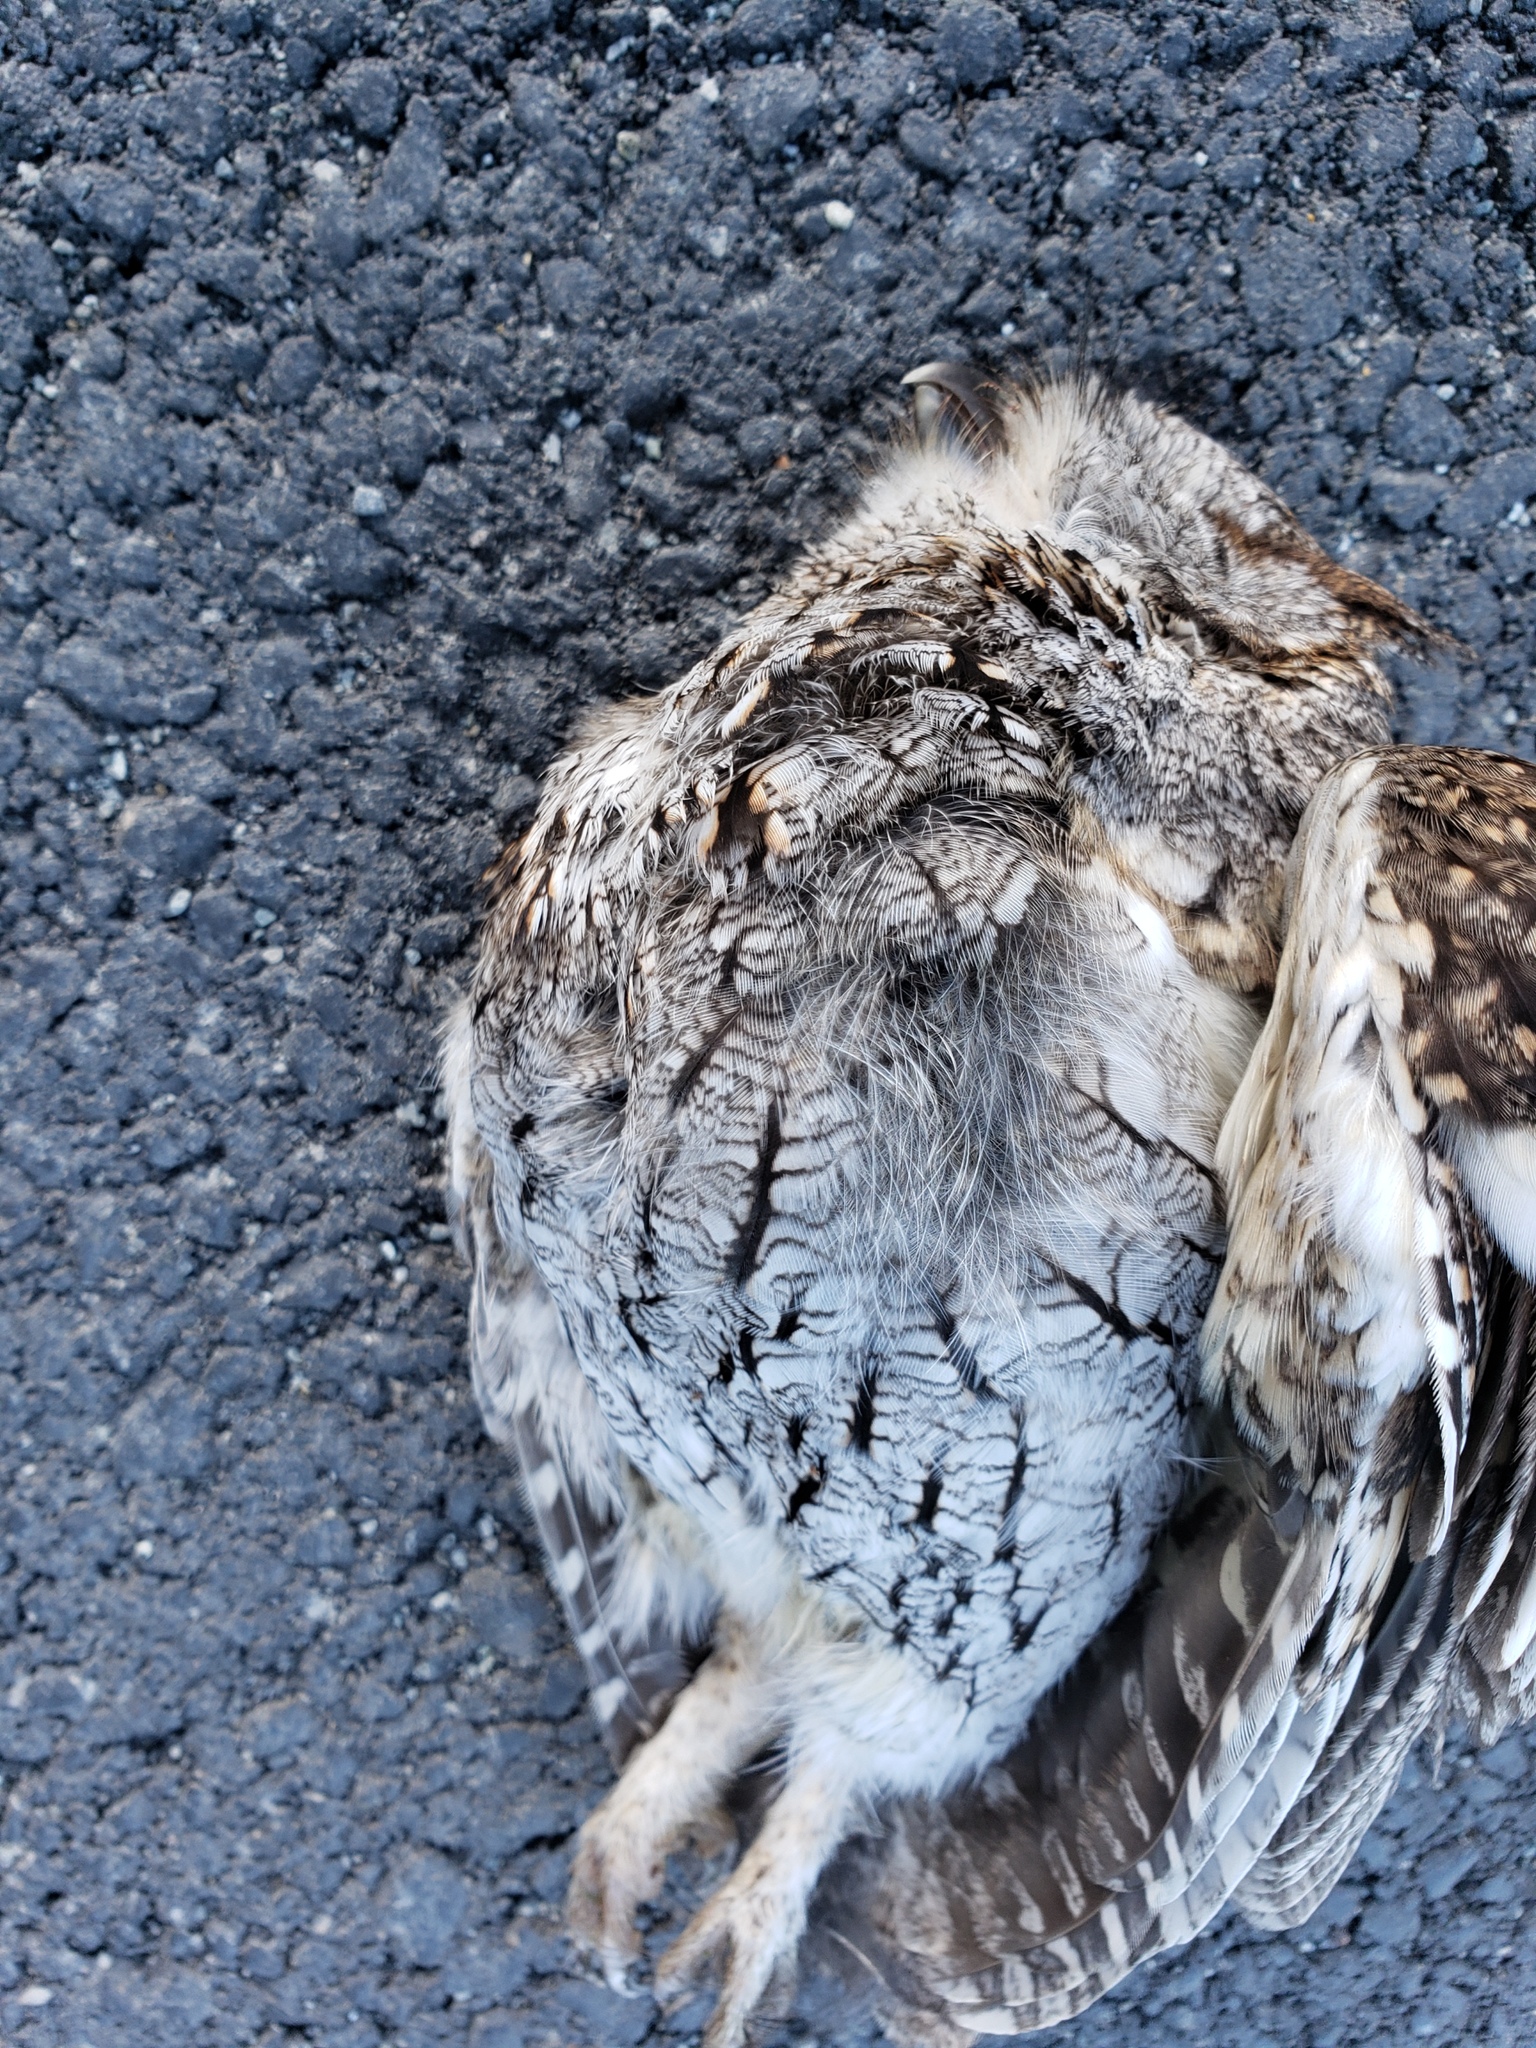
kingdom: Animalia
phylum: Chordata
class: Aves
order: Strigiformes
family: Strigidae
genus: Megascops
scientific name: Megascops kennicottii
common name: Western screech-owl
